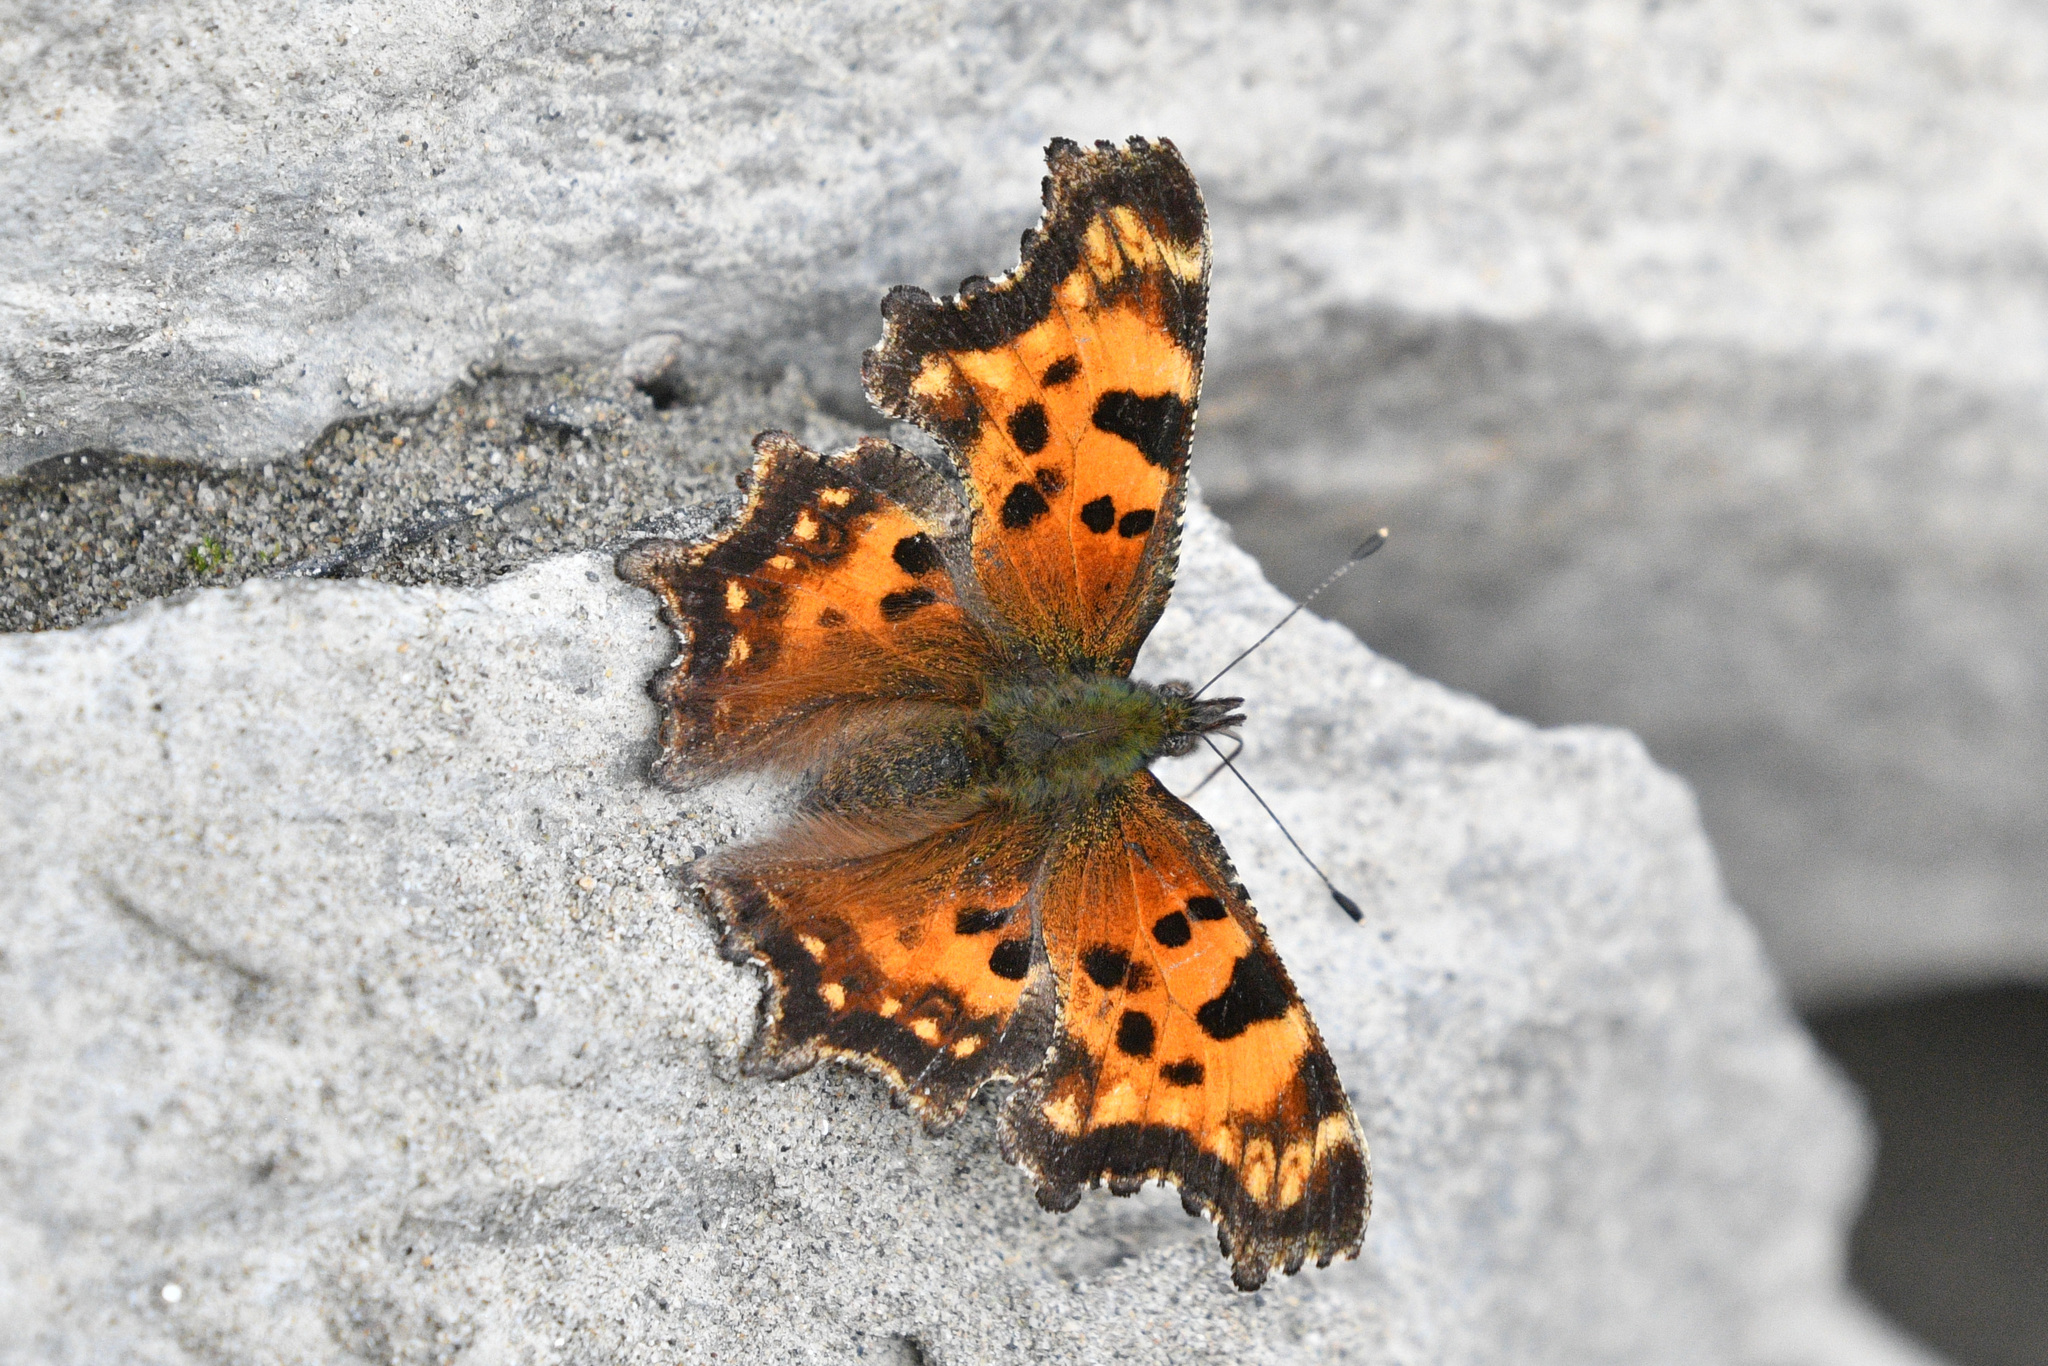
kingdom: Animalia
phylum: Arthropoda
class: Insecta
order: Lepidoptera
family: Nymphalidae
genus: Polygonia
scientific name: Polygonia faunus
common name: Green comma
